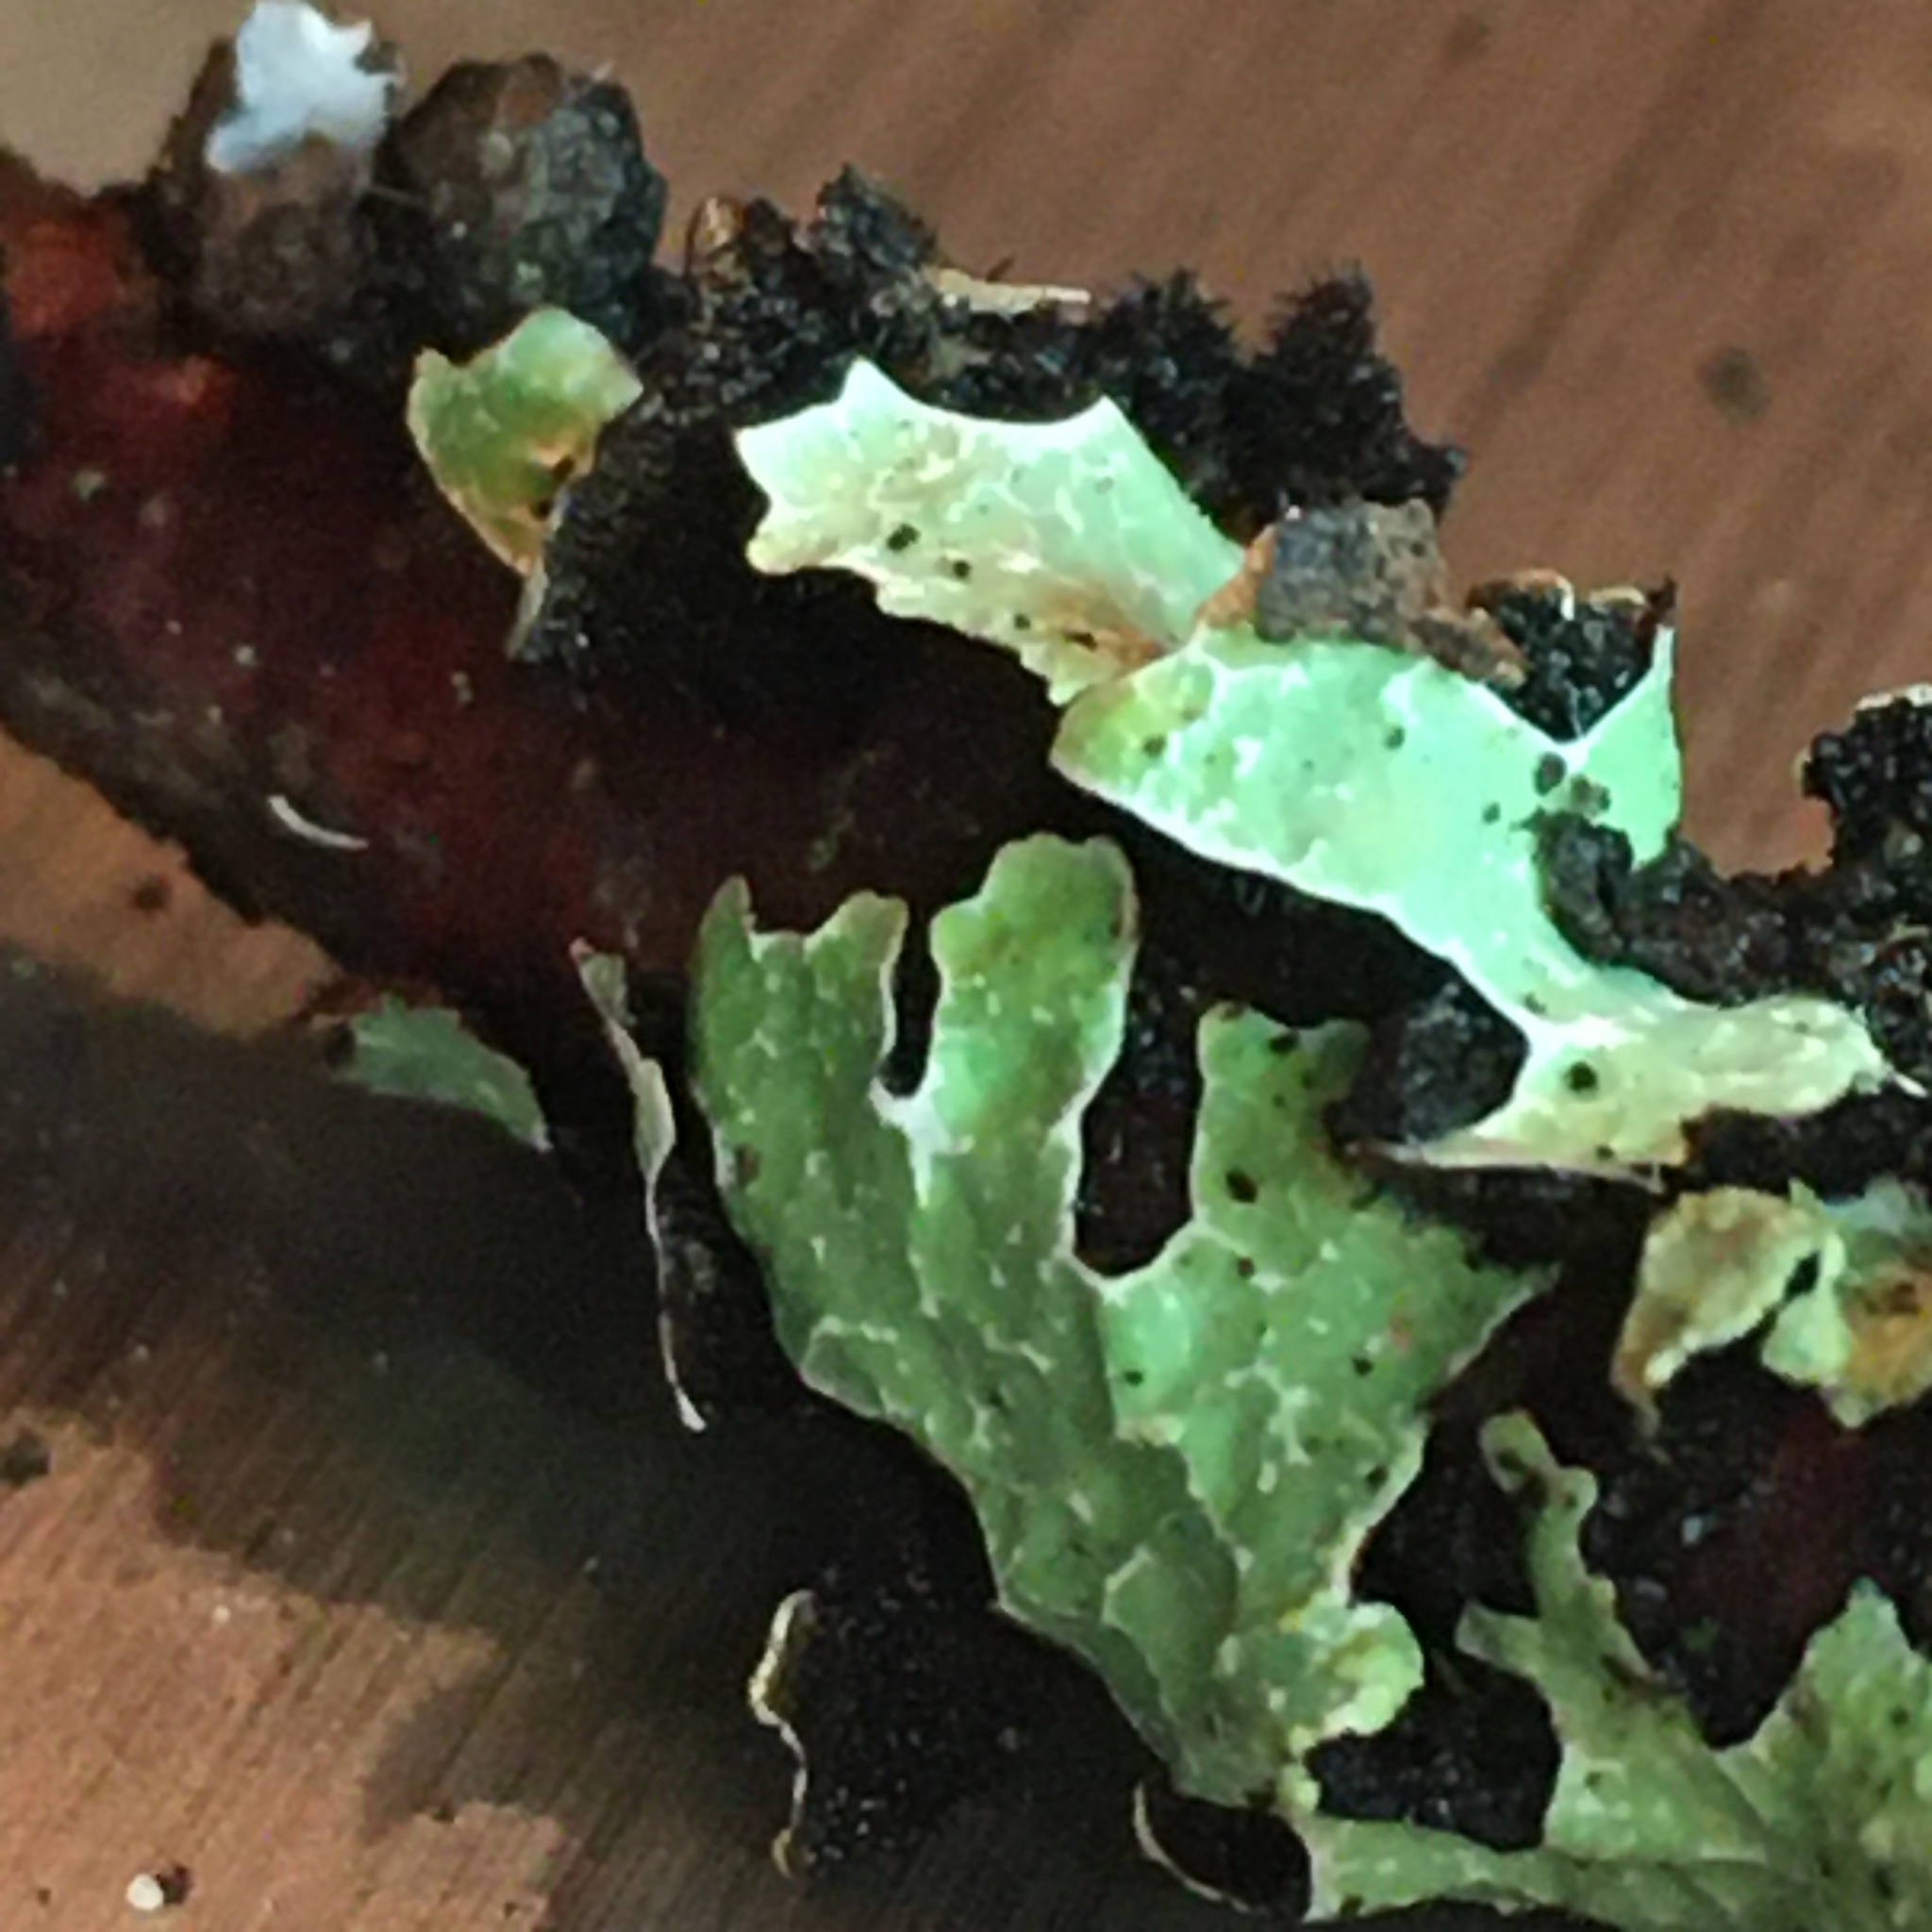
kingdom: Fungi
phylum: Ascomycota
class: Lecanoromycetes
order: Lecanorales
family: Parmeliaceae
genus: Parmelia
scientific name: Parmelia sulcata
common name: Netted shield lichen
